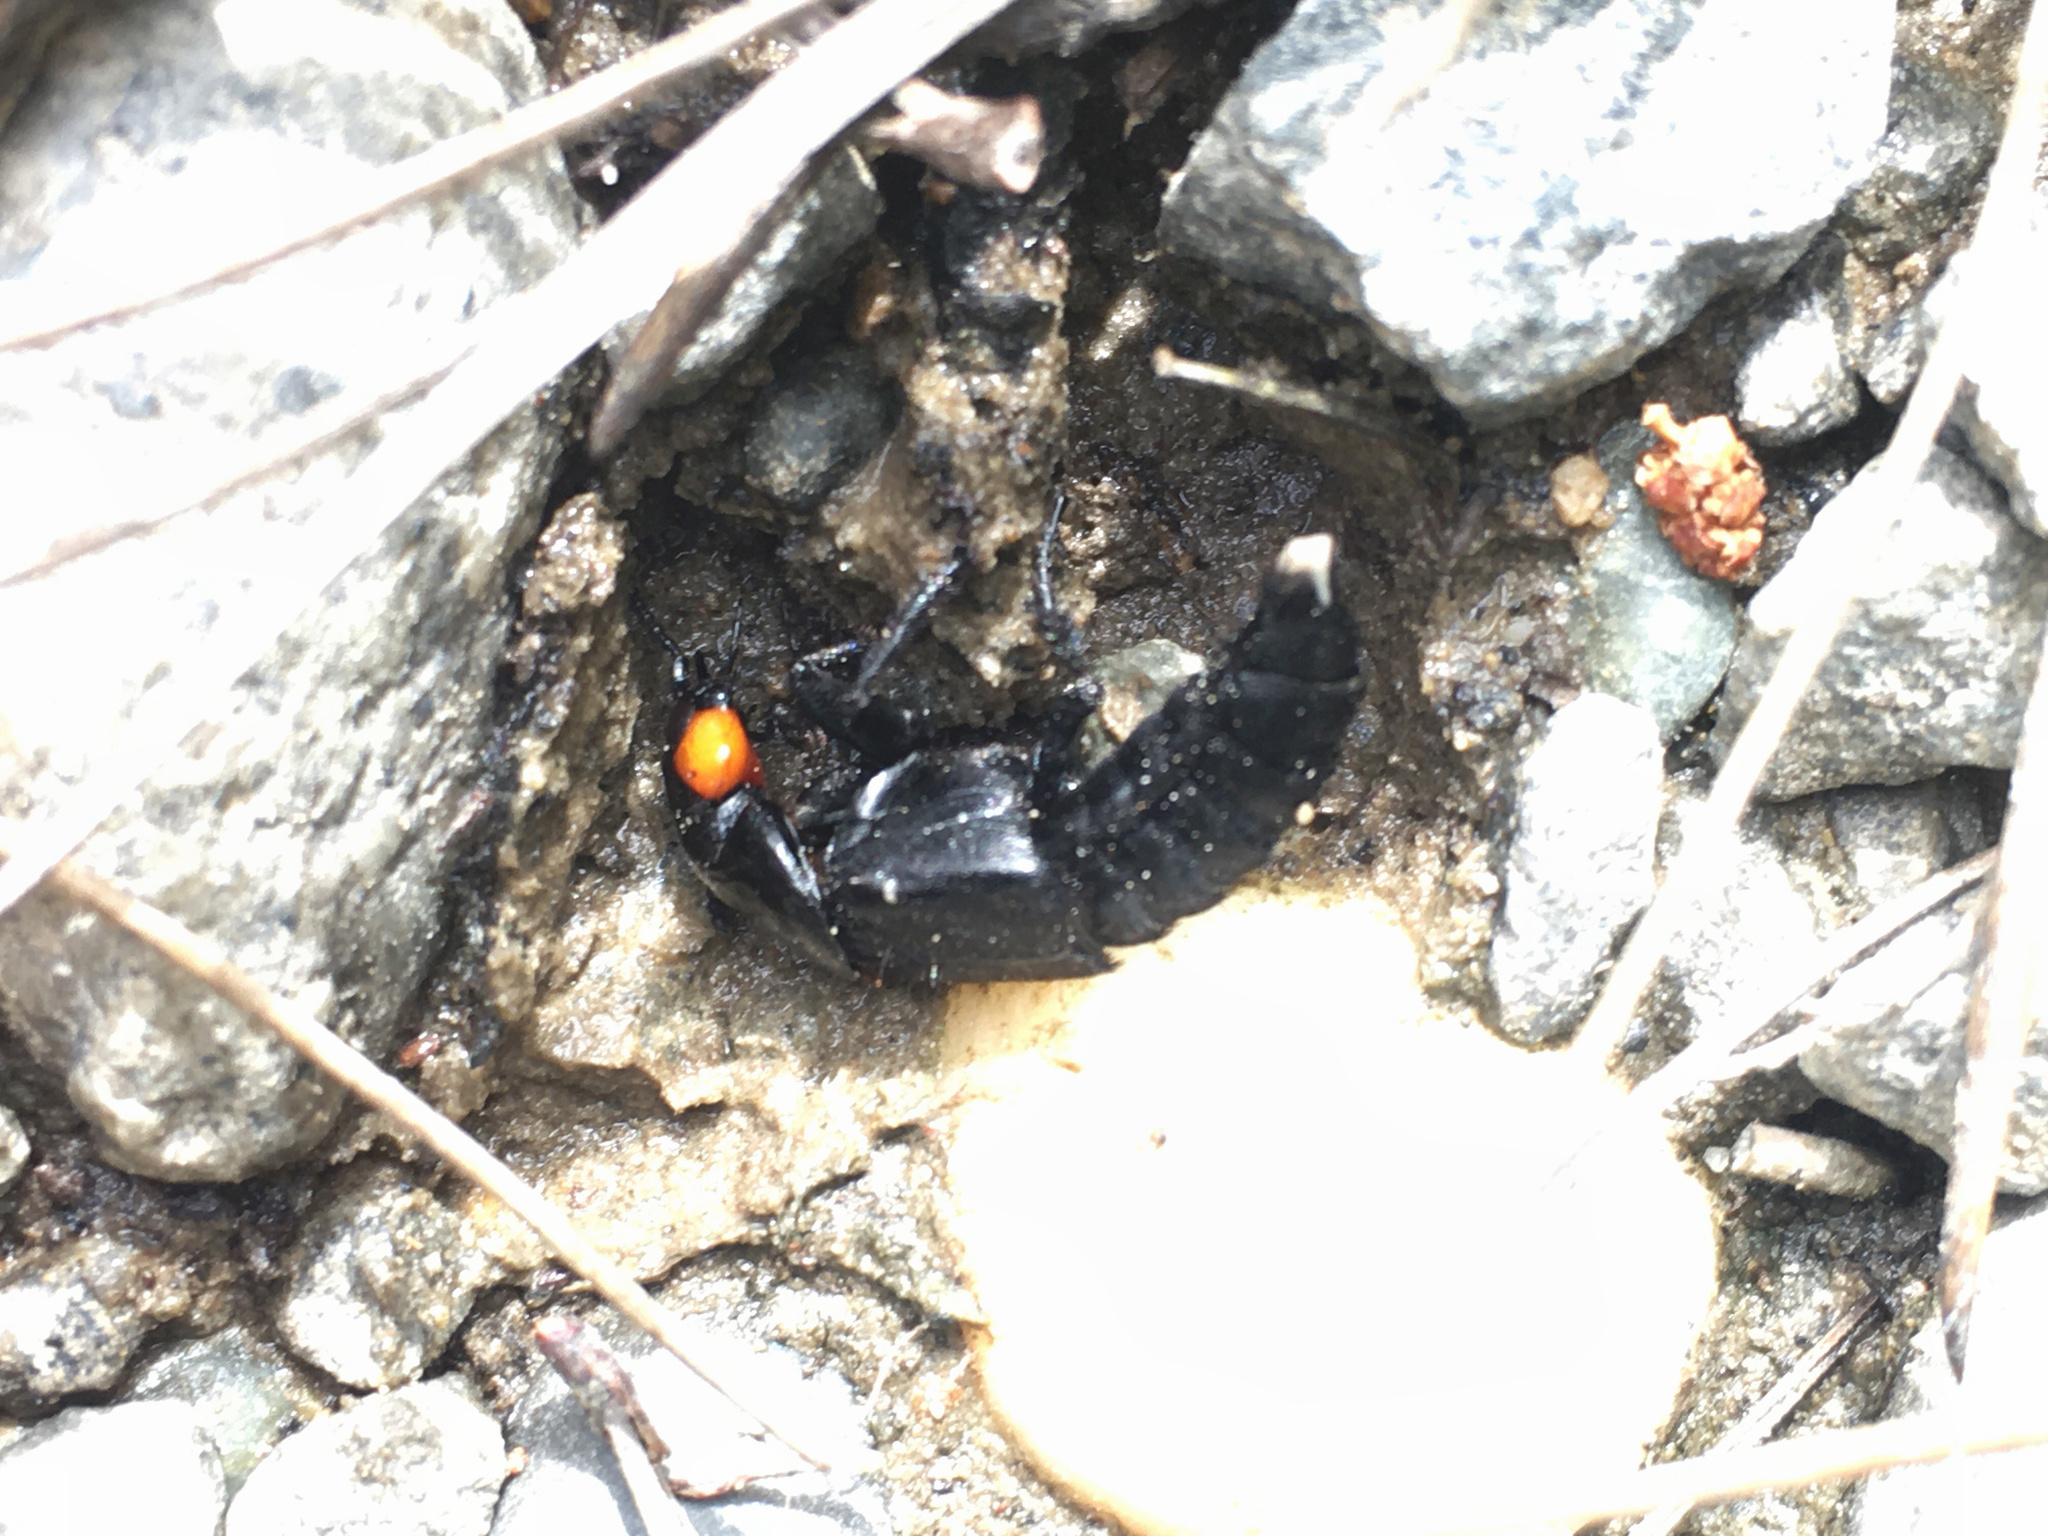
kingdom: Animalia
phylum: Arthropoda
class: Insecta
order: Coleoptera
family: Staphylinidae
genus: Creophilus
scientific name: Creophilus oculatus
